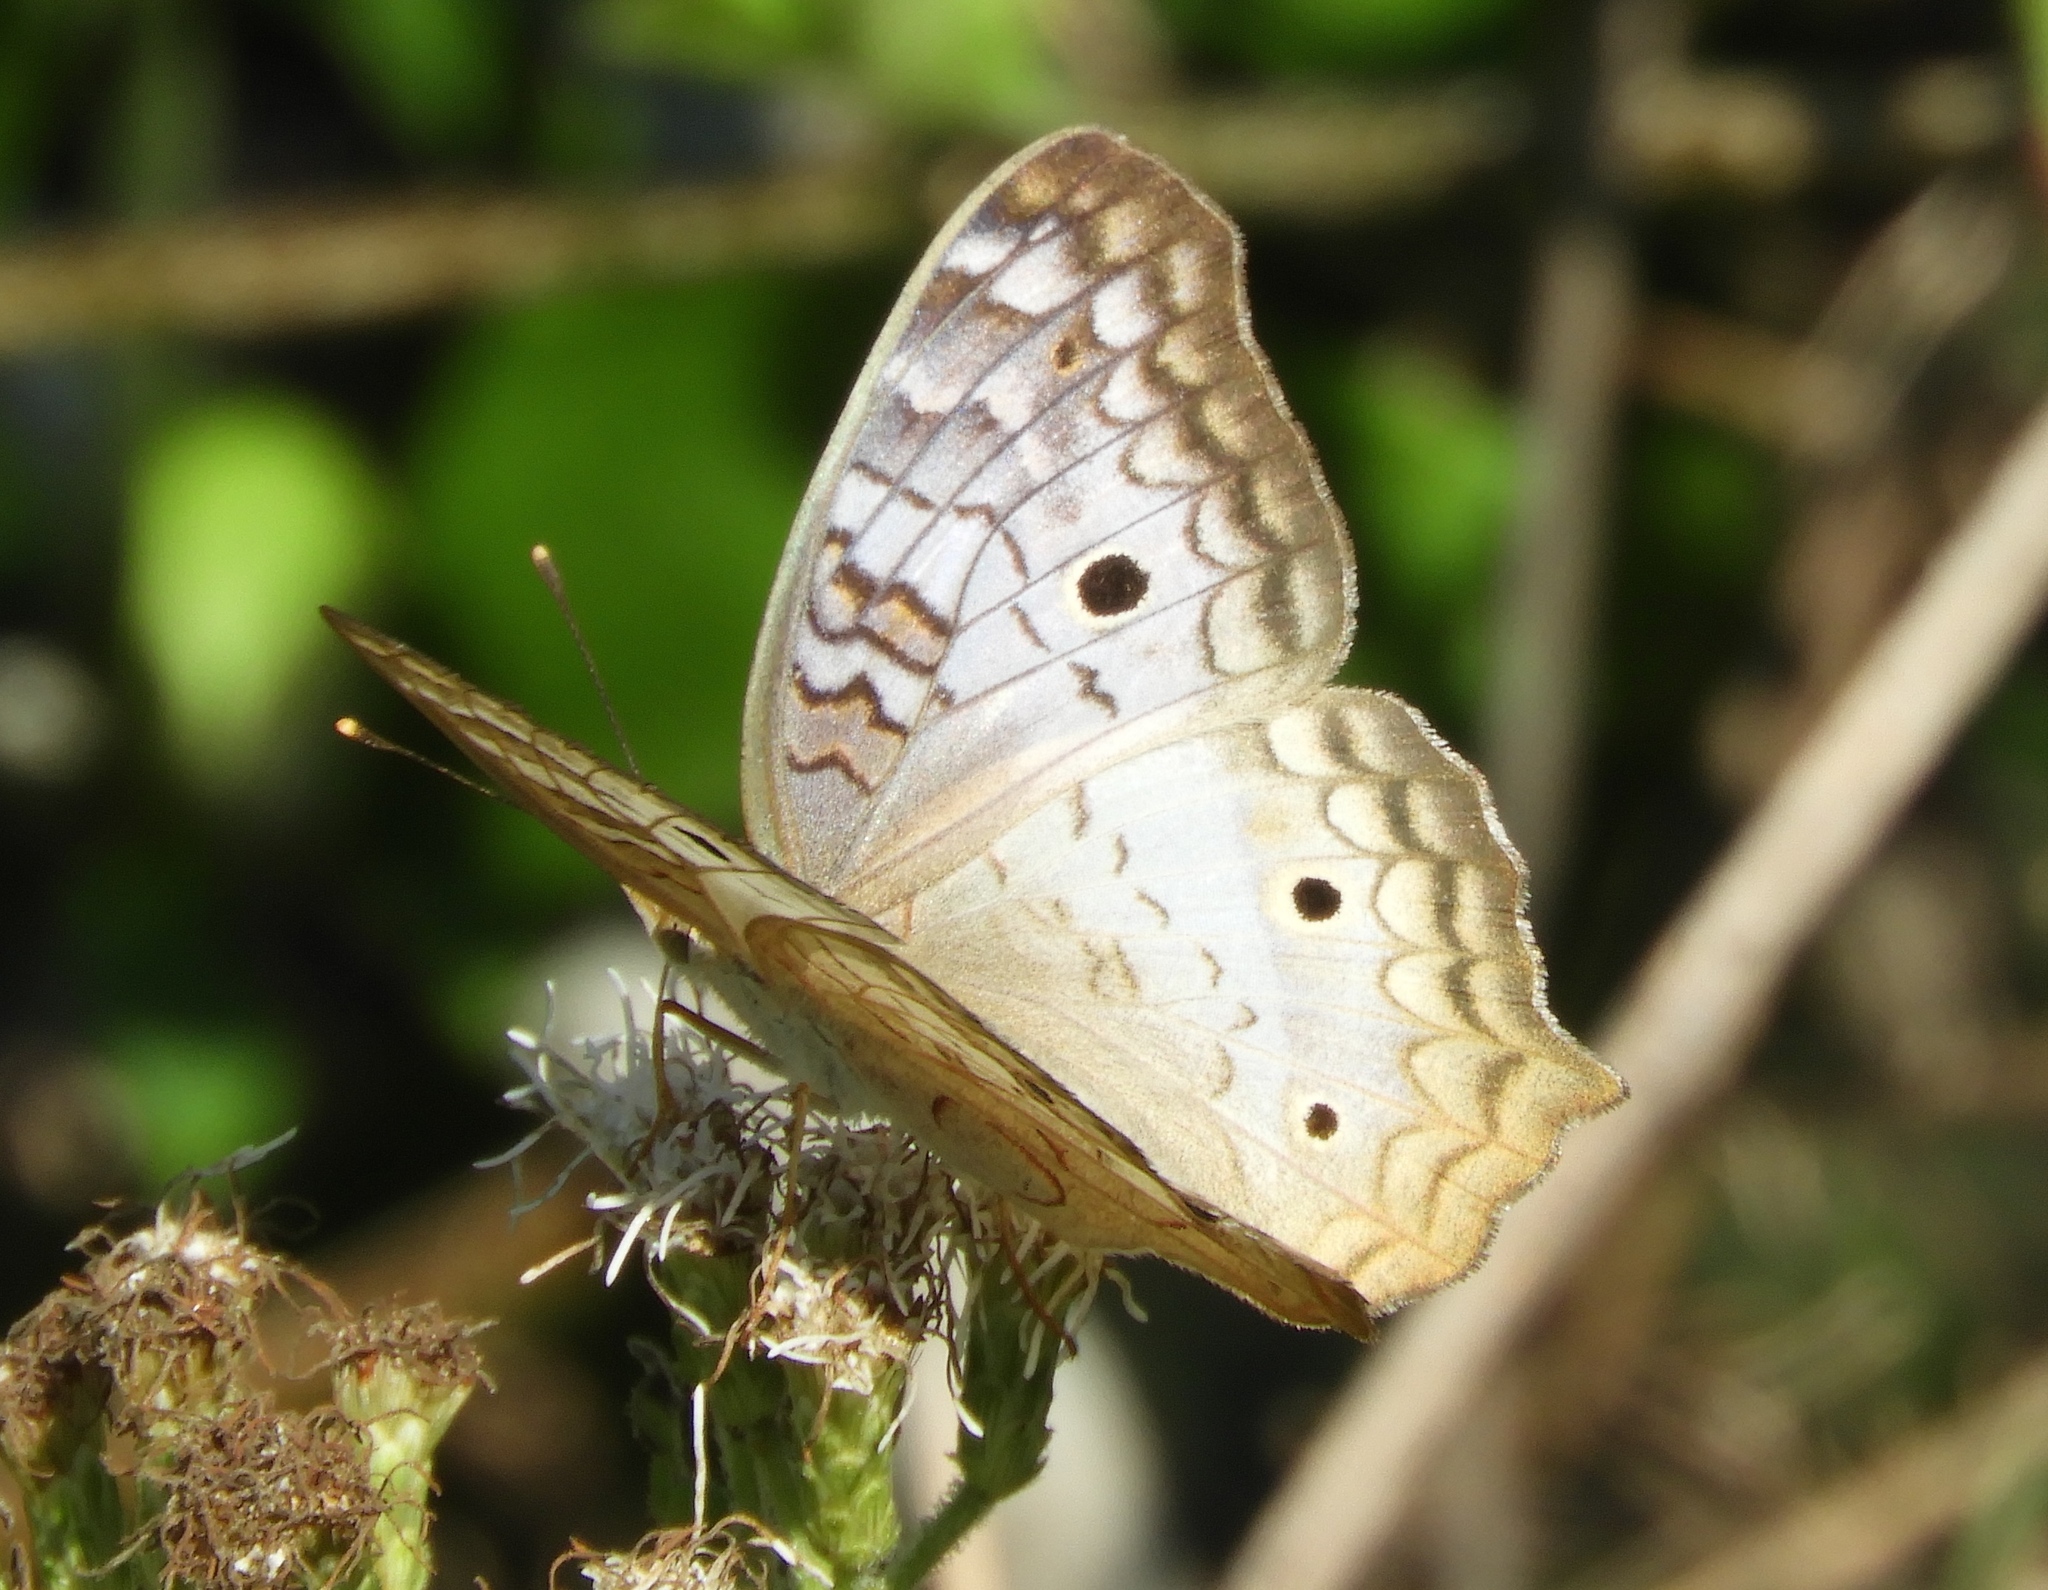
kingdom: Animalia
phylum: Arthropoda
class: Insecta
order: Lepidoptera
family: Nymphalidae
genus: Anartia
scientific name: Anartia jatrophae
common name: White peacock
